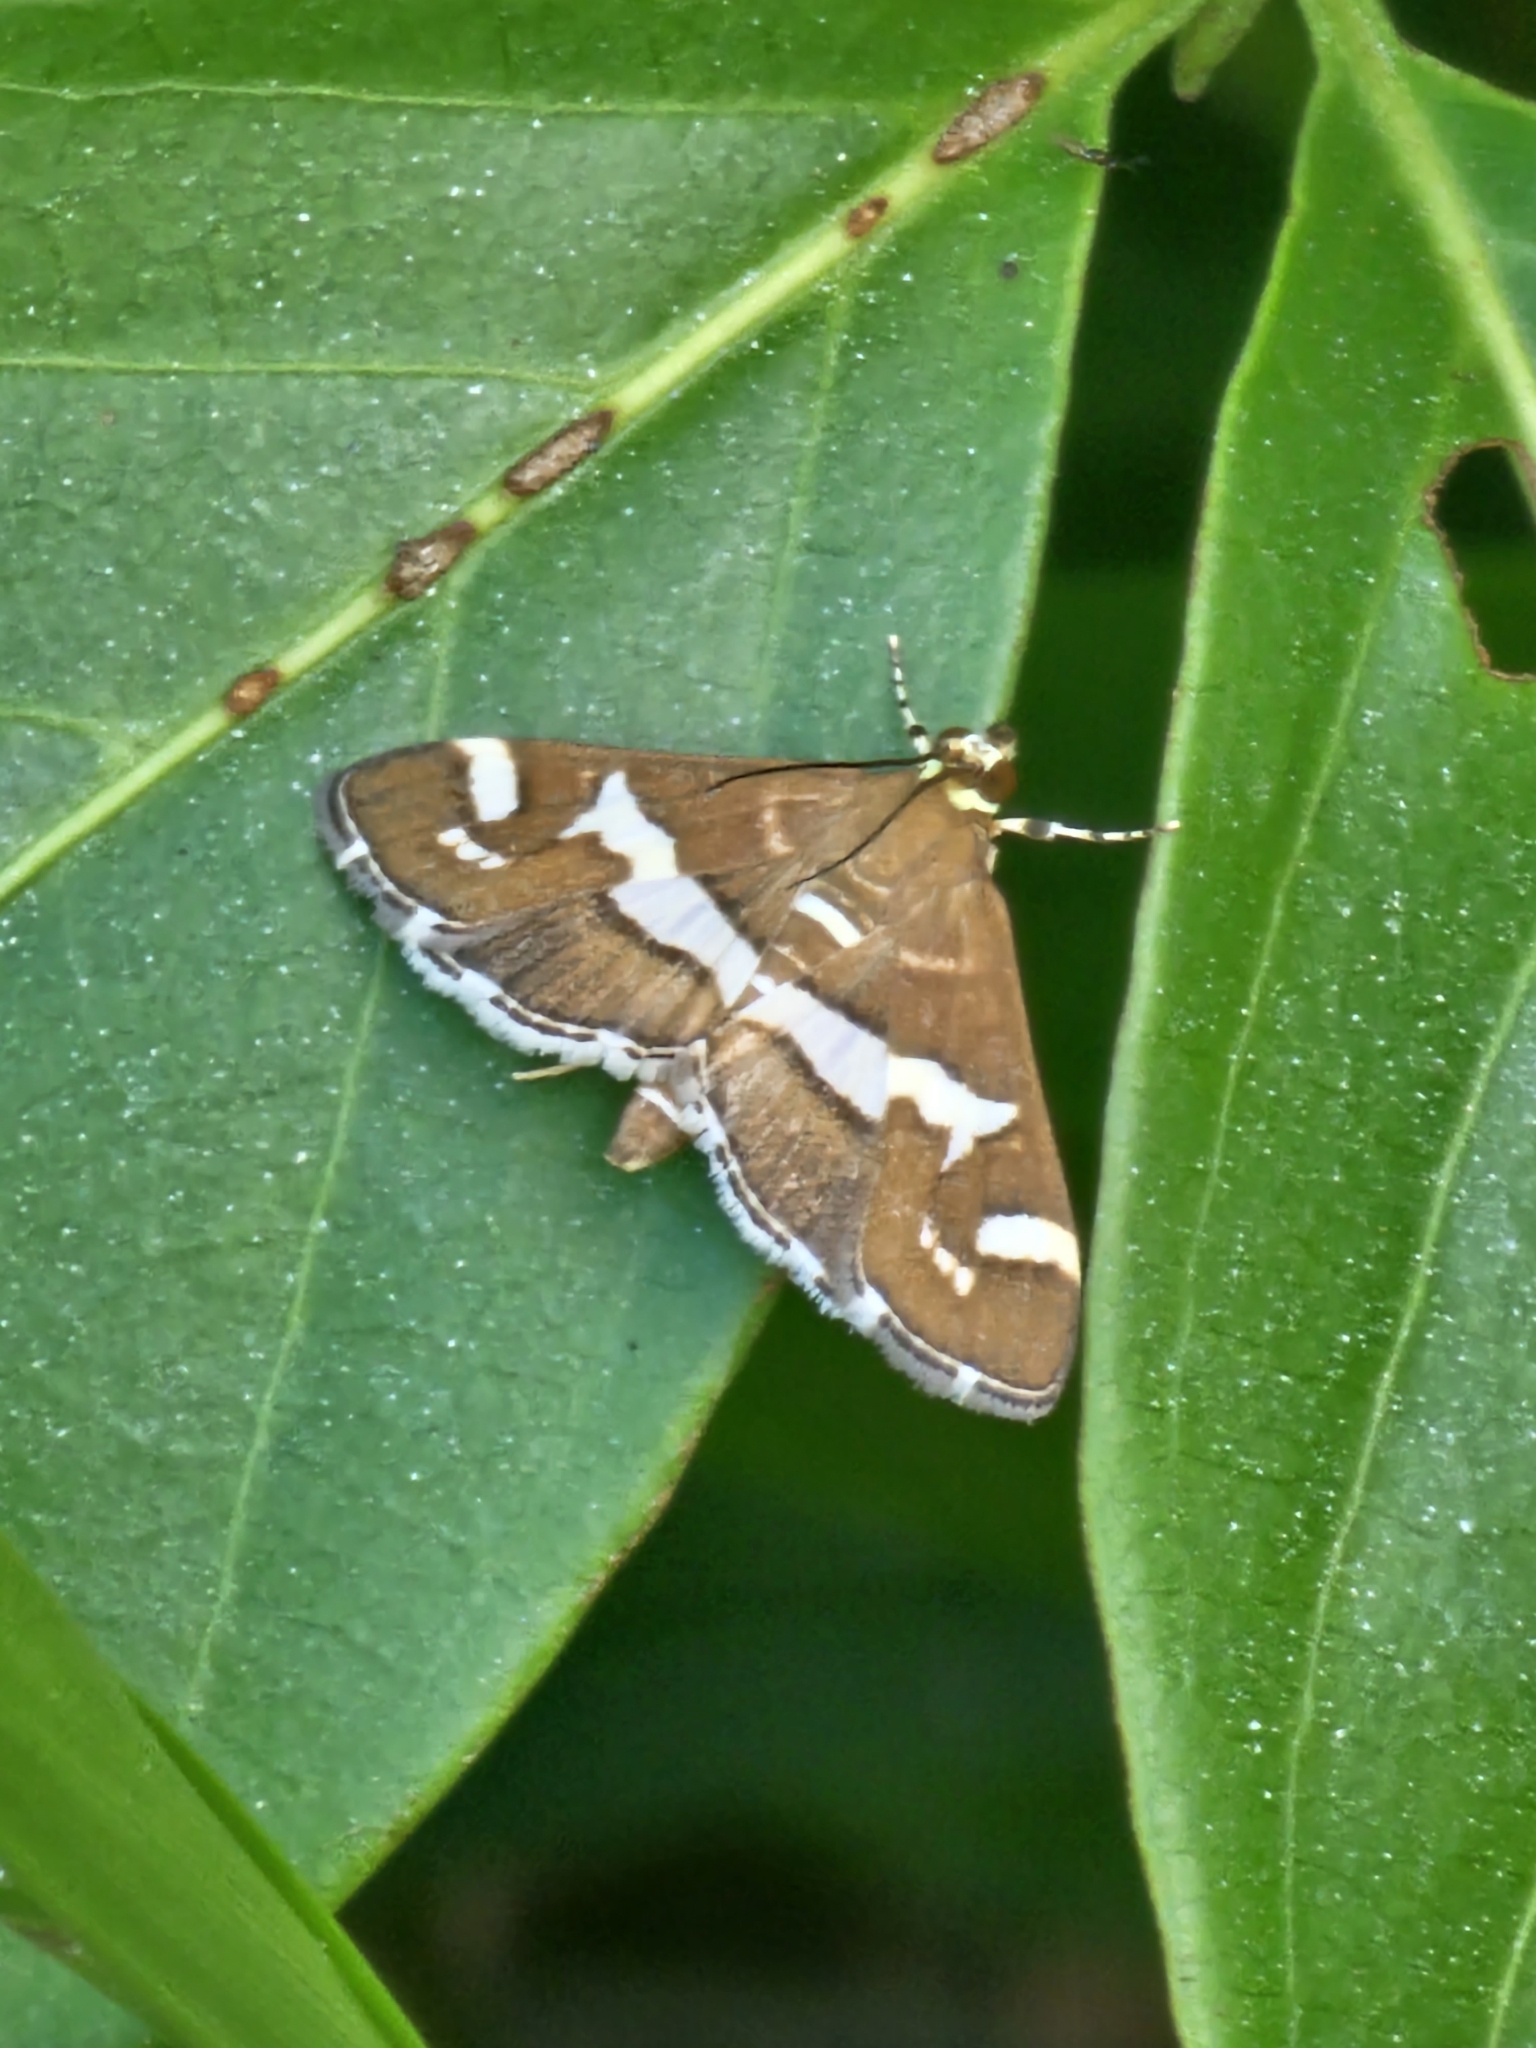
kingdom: Animalia
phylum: Arthropoda
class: Insecta
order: Lepidoptera
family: Crambidae
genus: Spoladea
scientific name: Spoladea recurvalis
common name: Beet webworm moth
